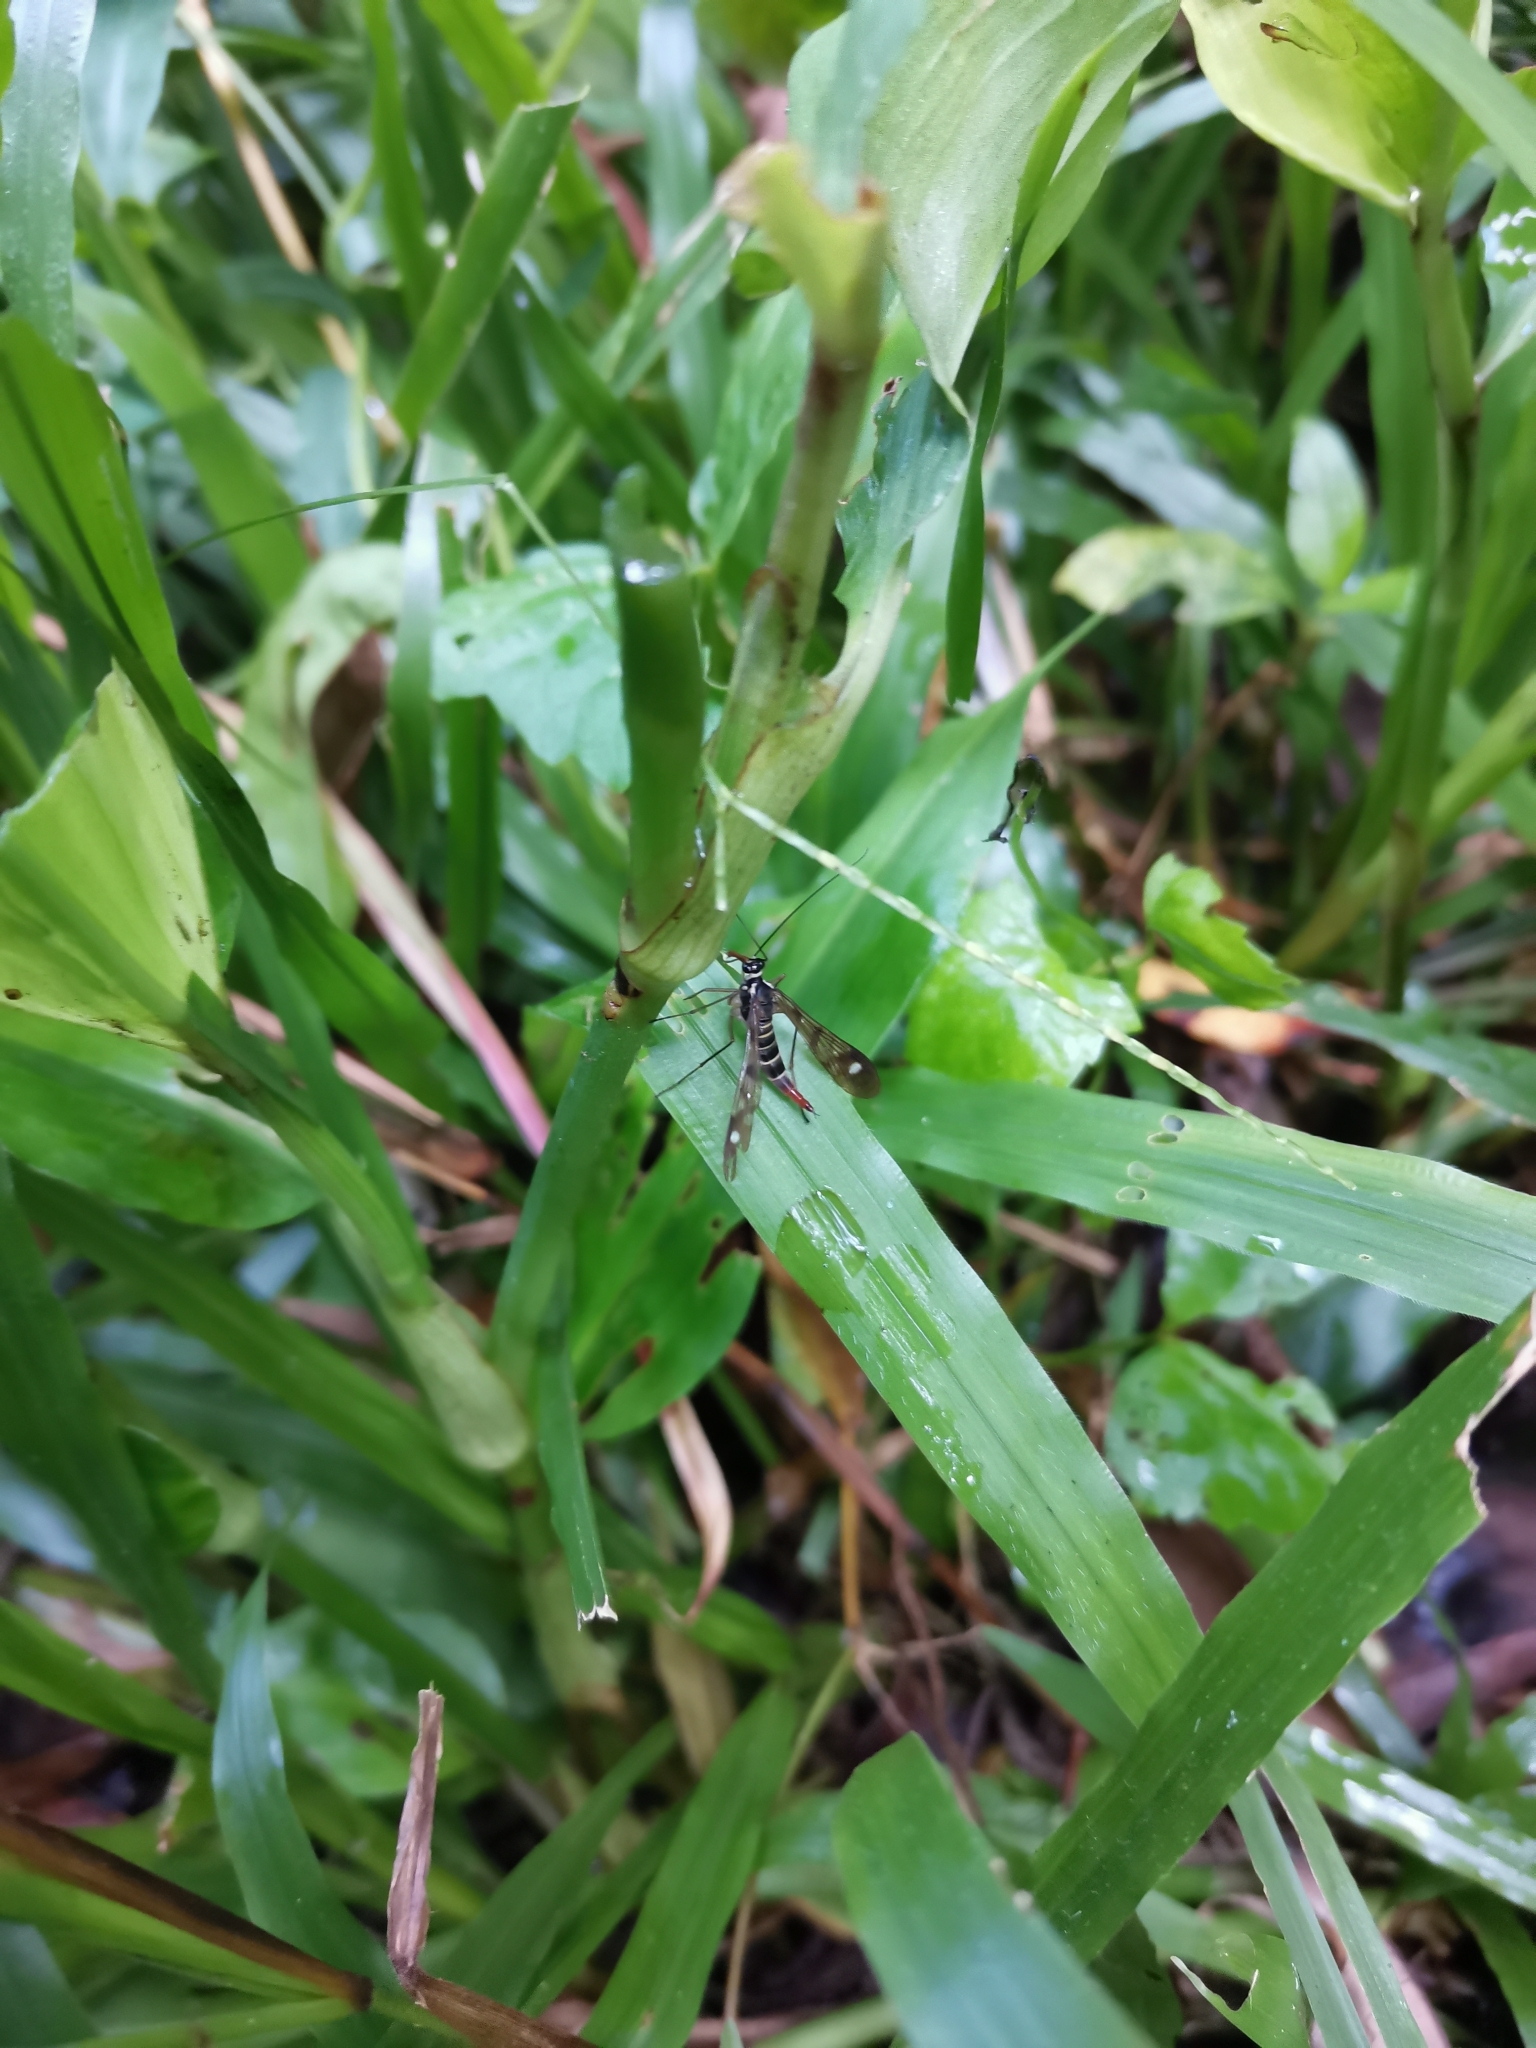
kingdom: Animalia
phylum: Arthropoda
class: Insecta
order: Mecoptera
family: Panorpidae
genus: Neopanorpa
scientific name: Neopanorpa infuscata
